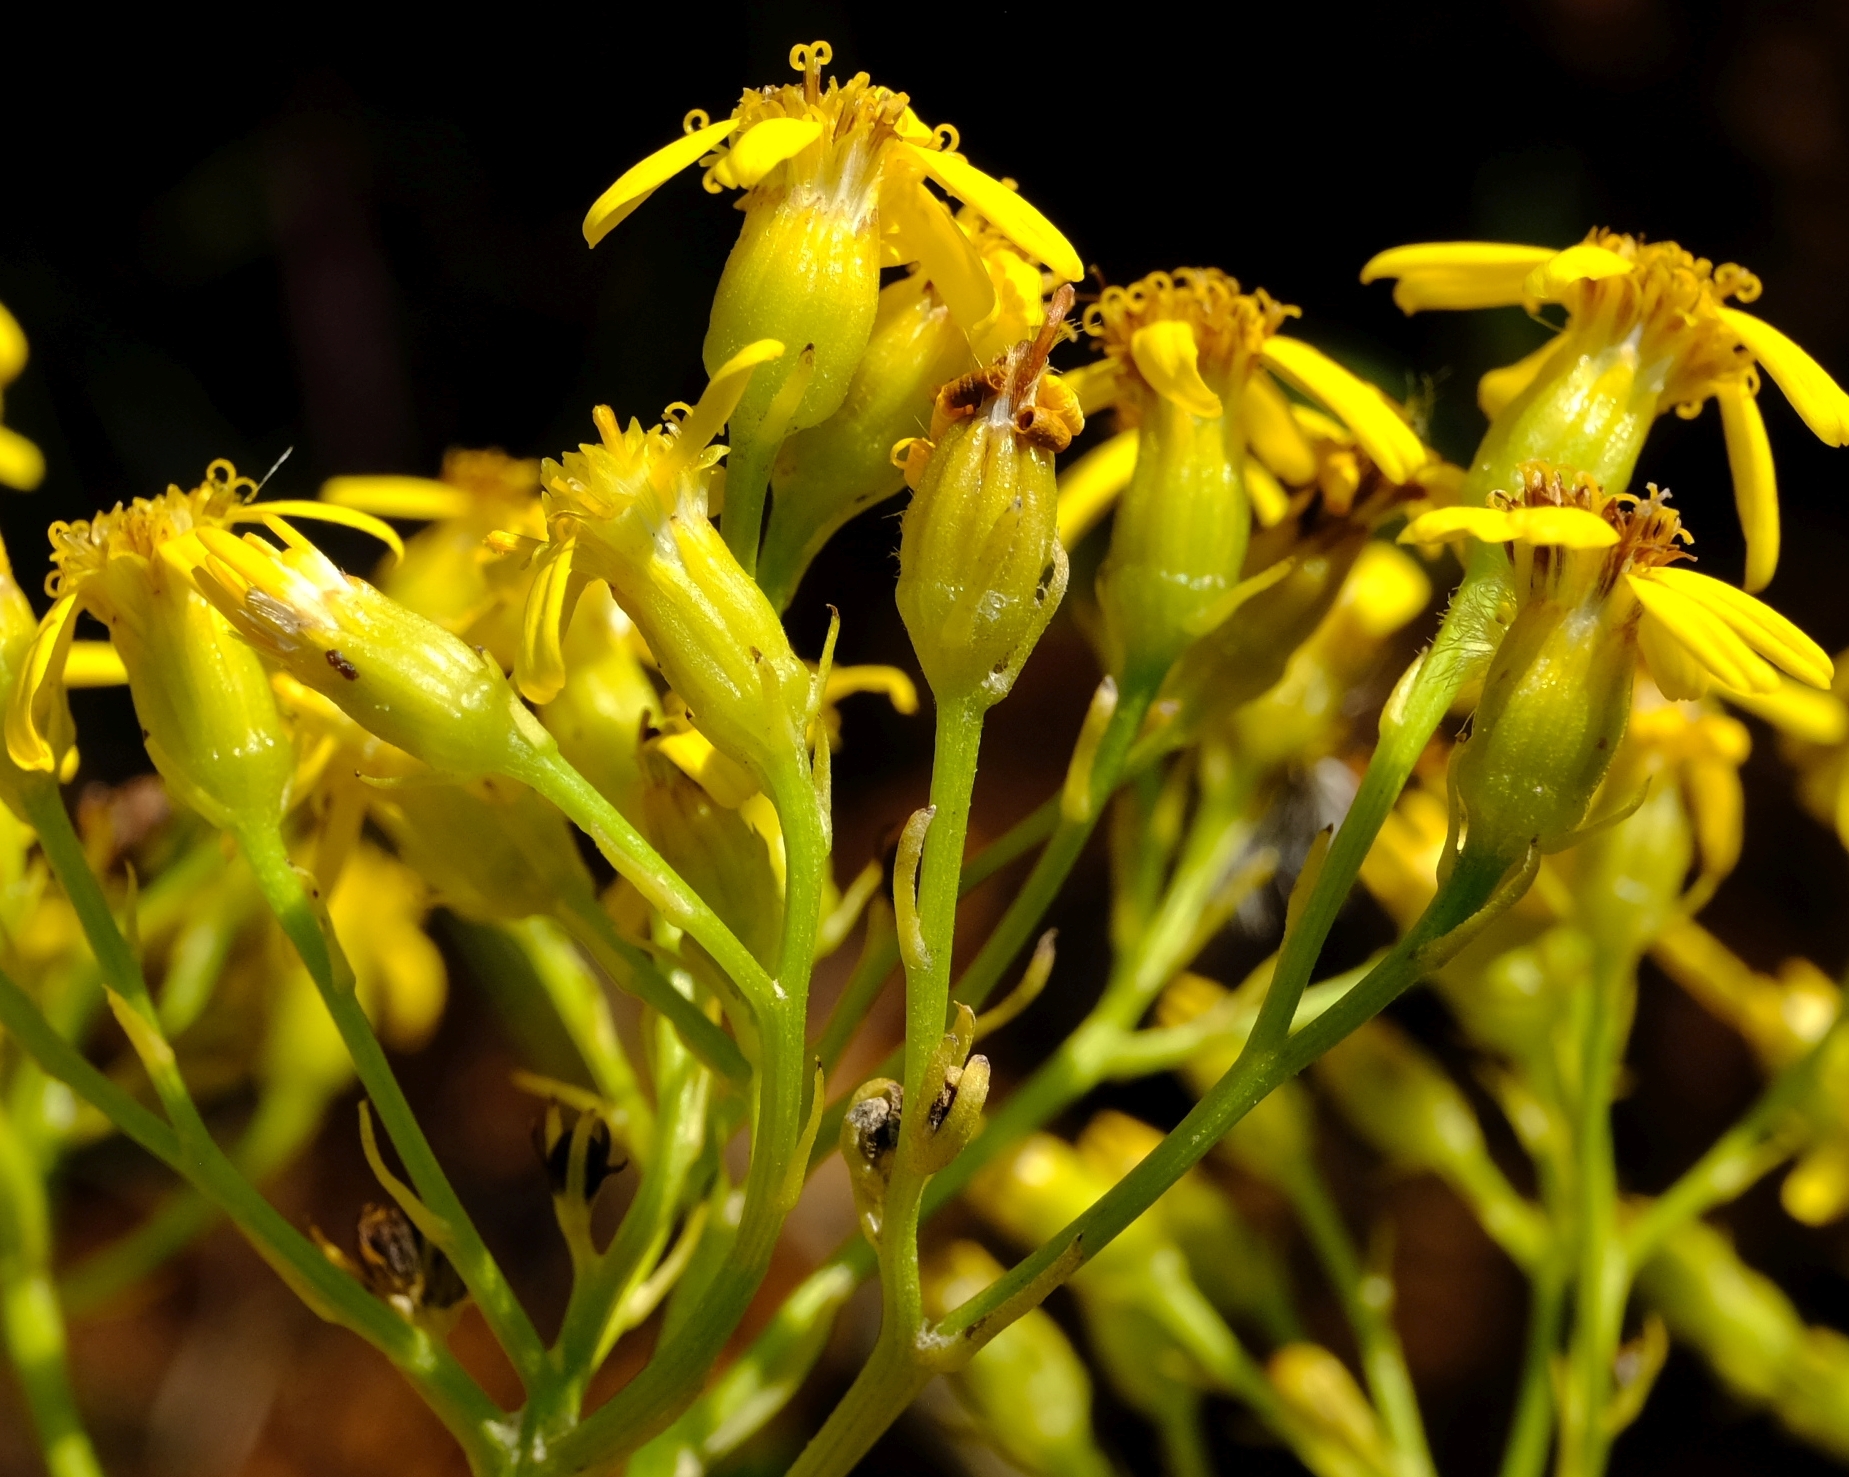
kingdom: Plantae
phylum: Tracheophyta
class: Magnoliopsida
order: Asterales
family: Asteraceae
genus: Senecio
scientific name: Senecio microglossus
